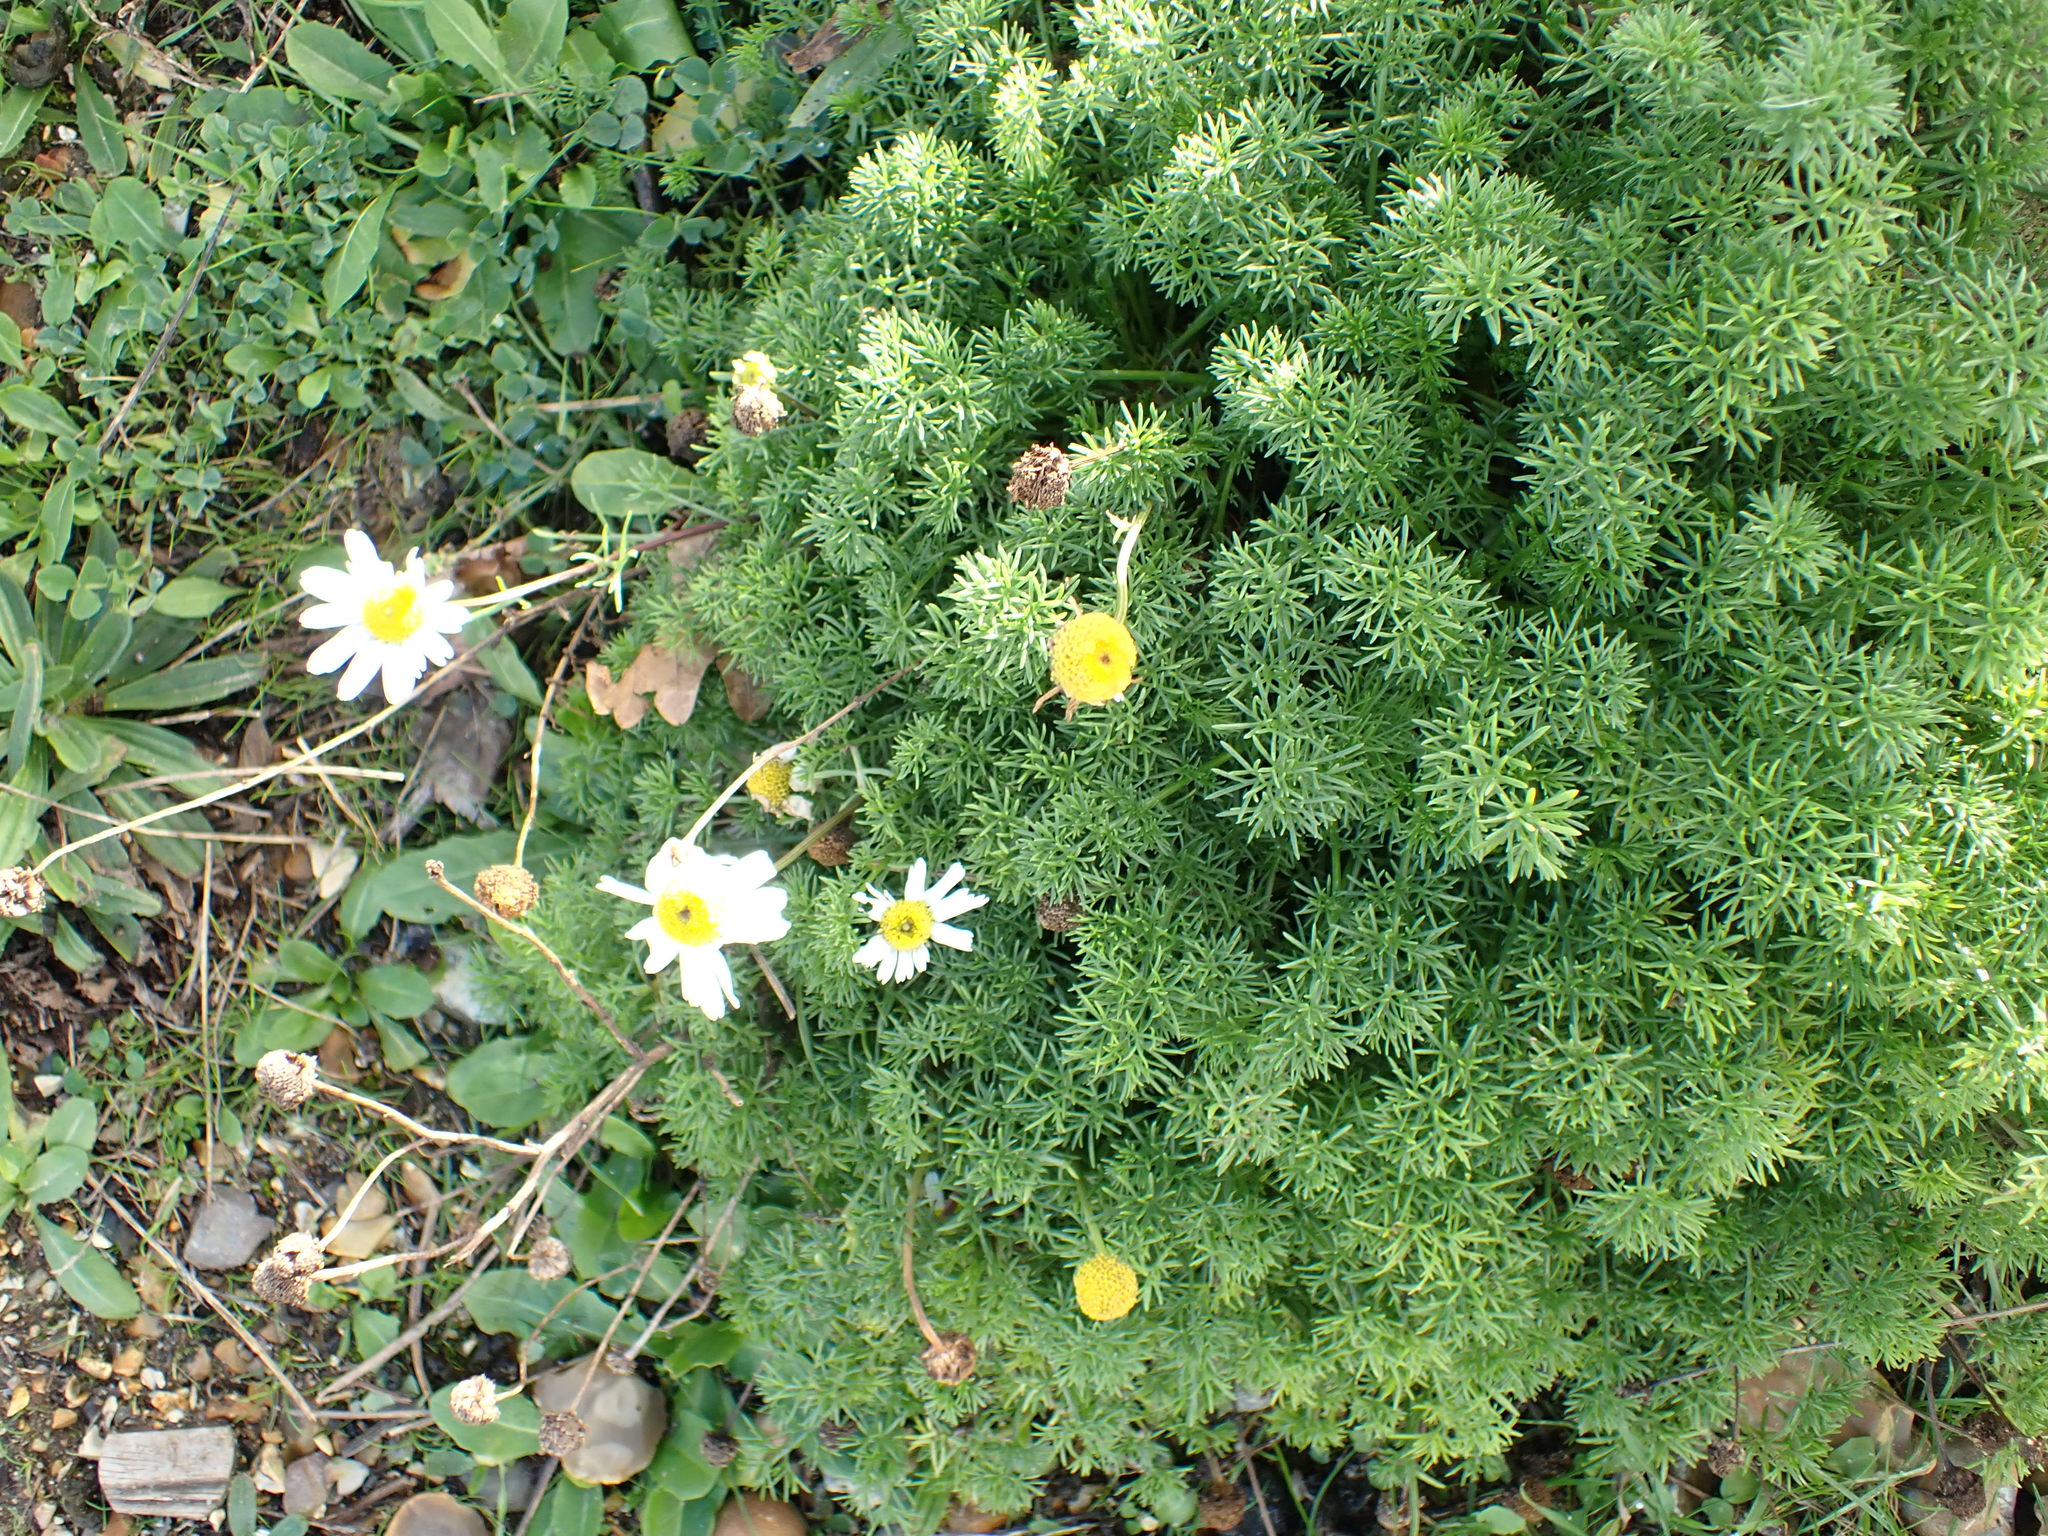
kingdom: Plantae
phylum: Tracheophyta
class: Magnoliopsida
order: Asterales
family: Asteraceae
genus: Tripleurospermum
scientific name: Tripleurospermum maritimum
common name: Sea mayweed
